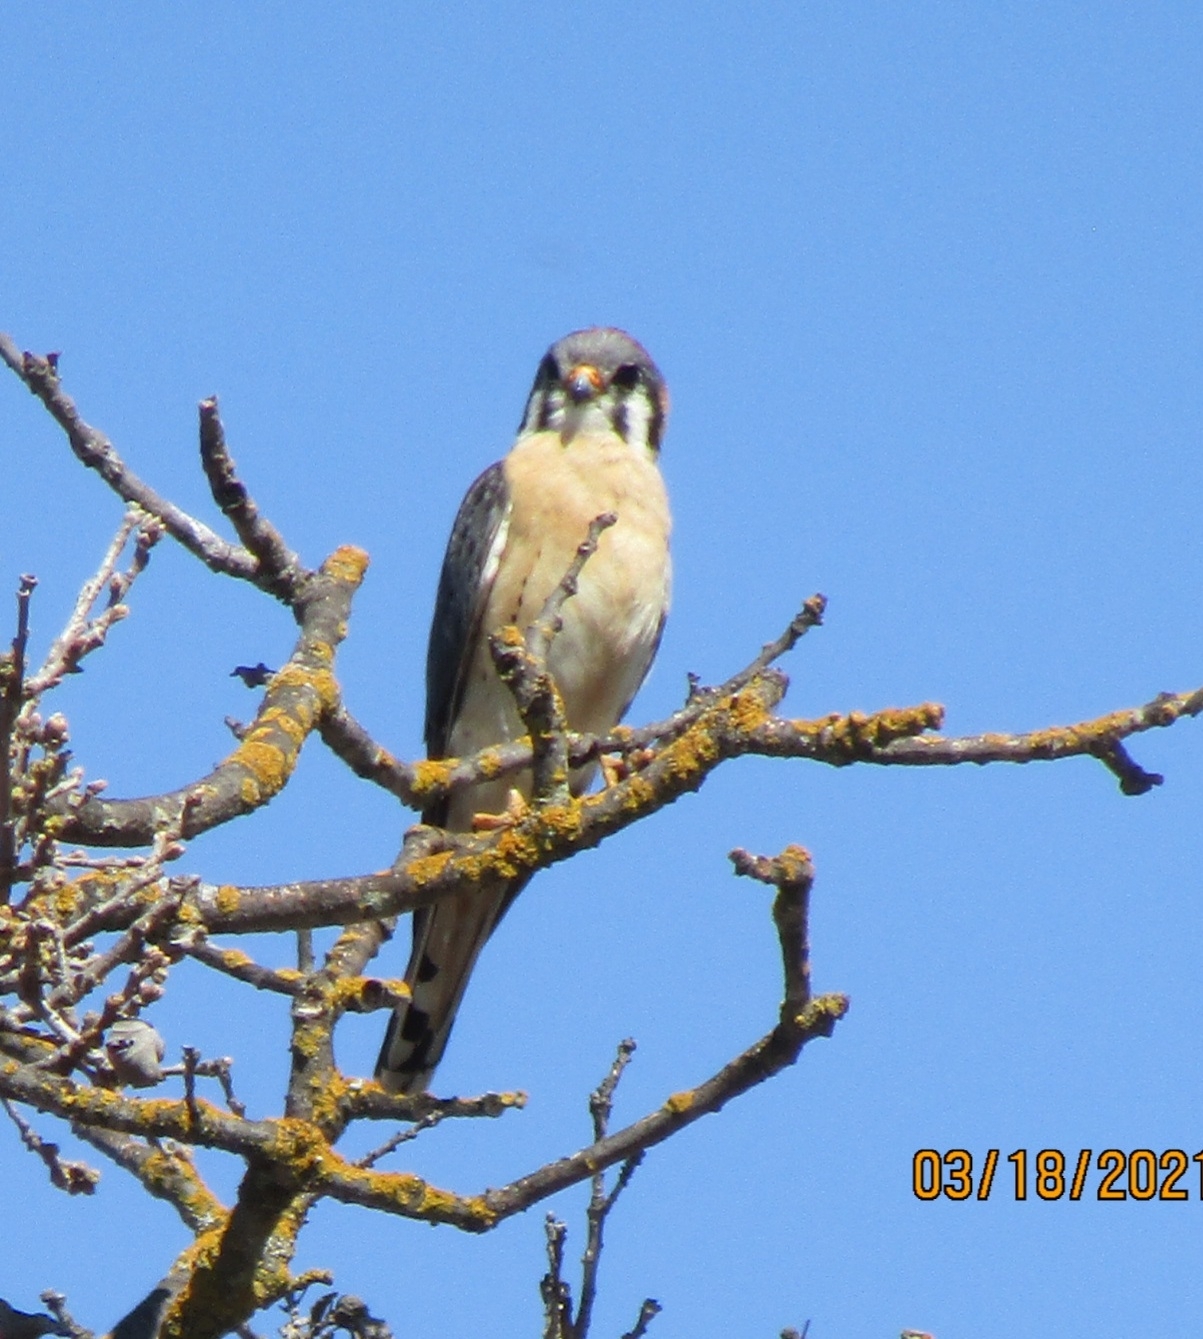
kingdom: Animalia
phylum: Chordata
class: Aves
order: Falconiformes
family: Falconidae
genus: Falco
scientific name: Falco sparverius
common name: American kestrel
